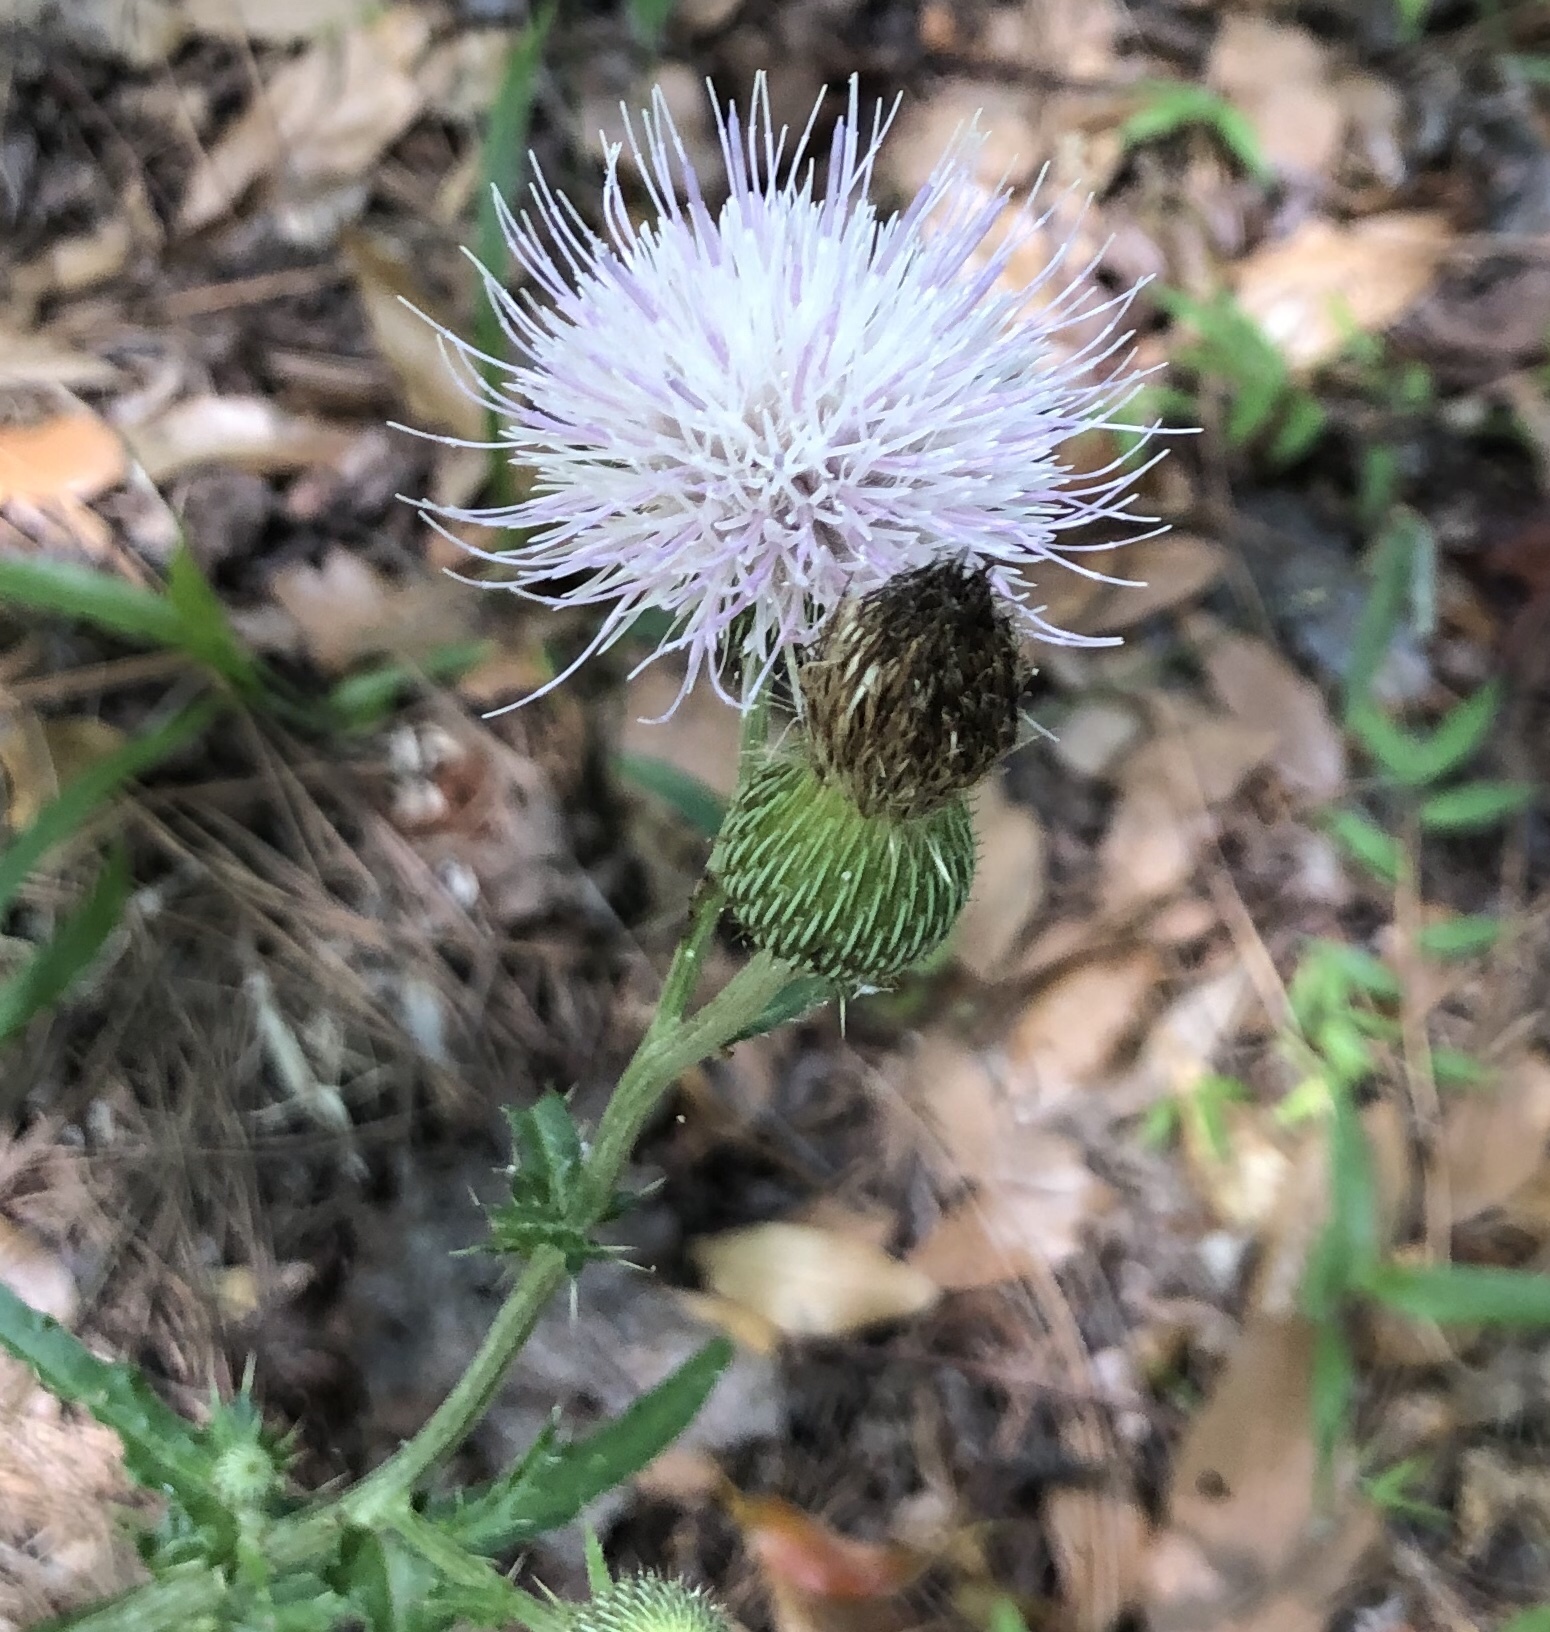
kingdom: Plantae
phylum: Tracheophyta
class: Magnoliopsida
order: Asterales
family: Asteraceae
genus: Cirsium
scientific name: Cirsium nuttalii
